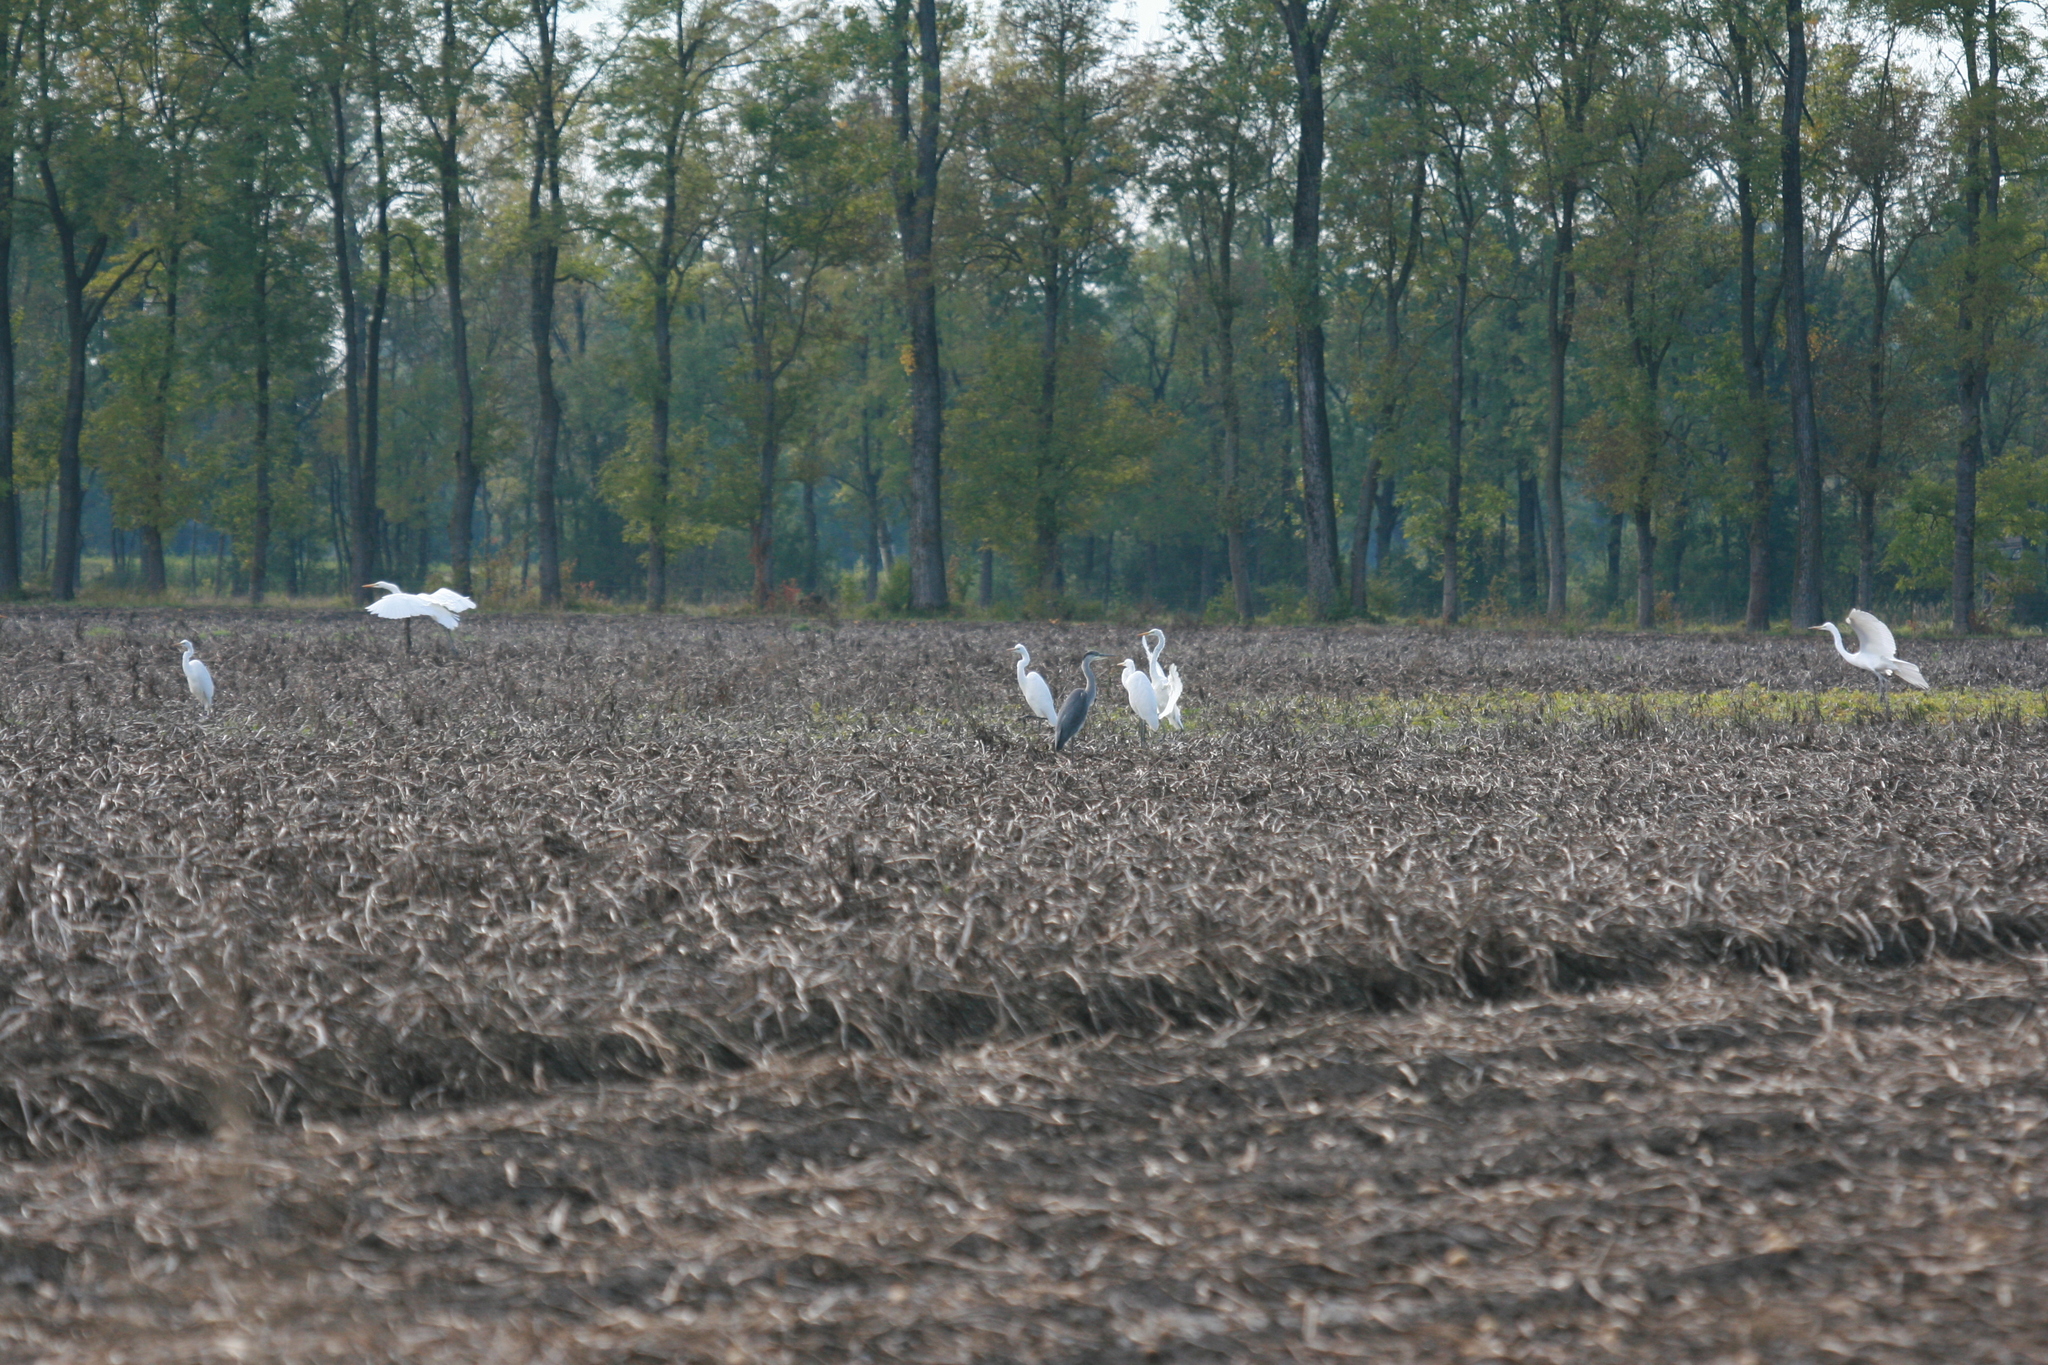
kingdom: Animalia
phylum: Chordata
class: Aves
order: Pelecaniformes
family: Ardeidae
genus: Ardea
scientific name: Ardea alba
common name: Great egret
